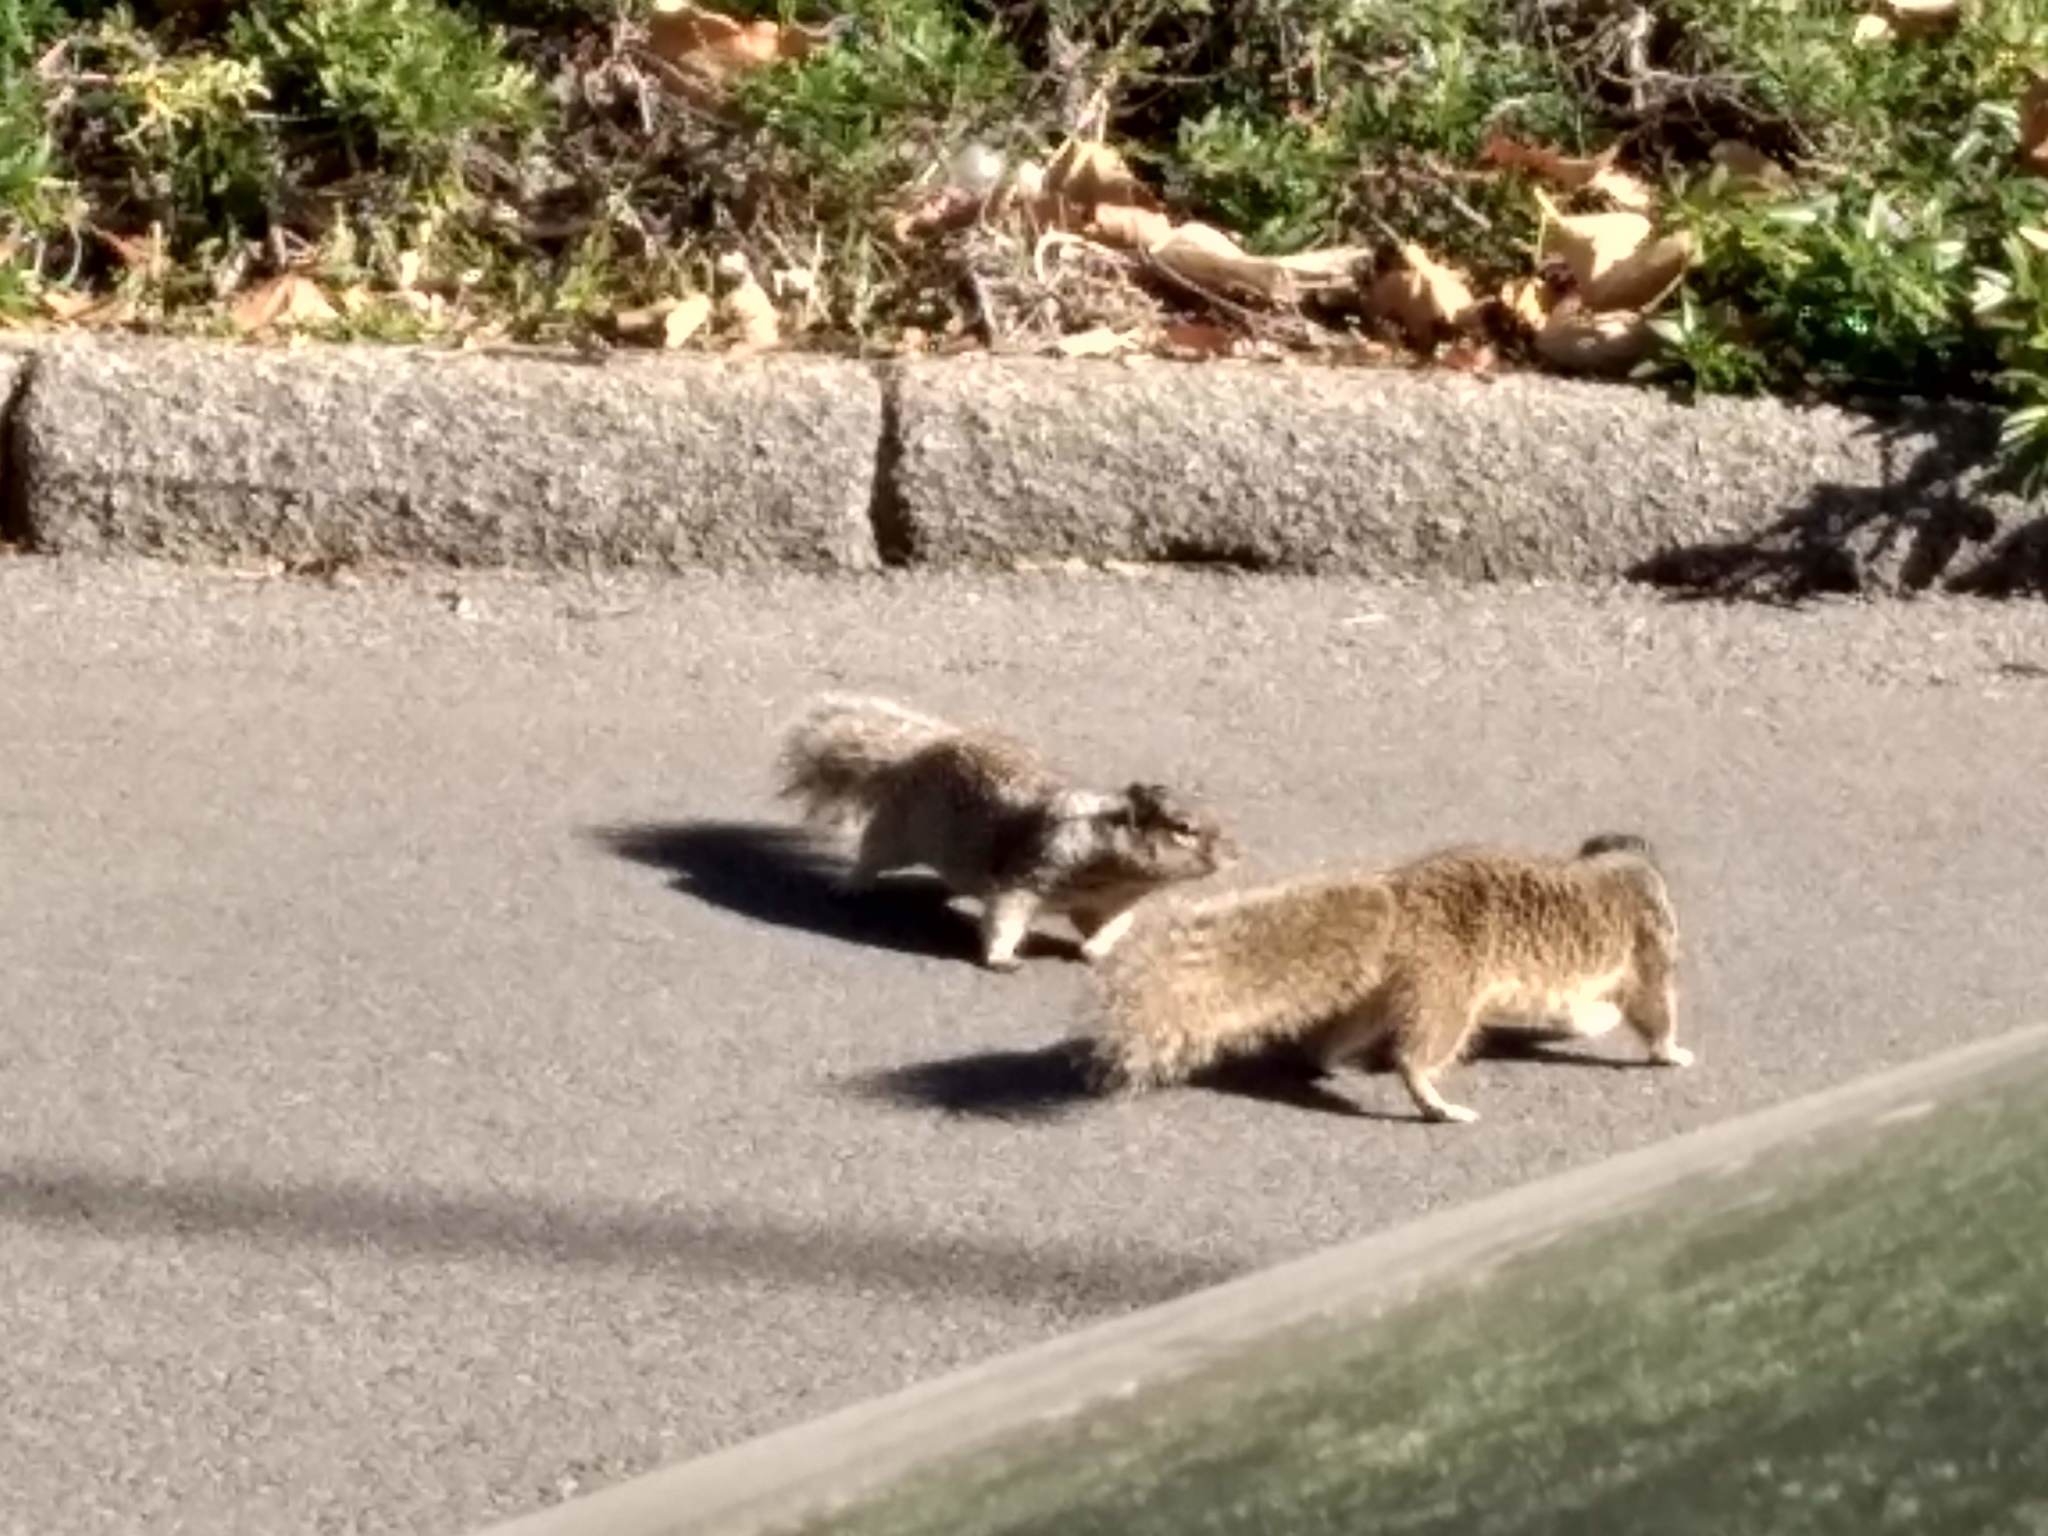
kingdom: Animalia
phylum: Chordata
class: Mammalia
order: Rodentia
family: Sciuridae
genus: Otospermophilus
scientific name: Otospermophilus beecheyi
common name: California ground squirrel
